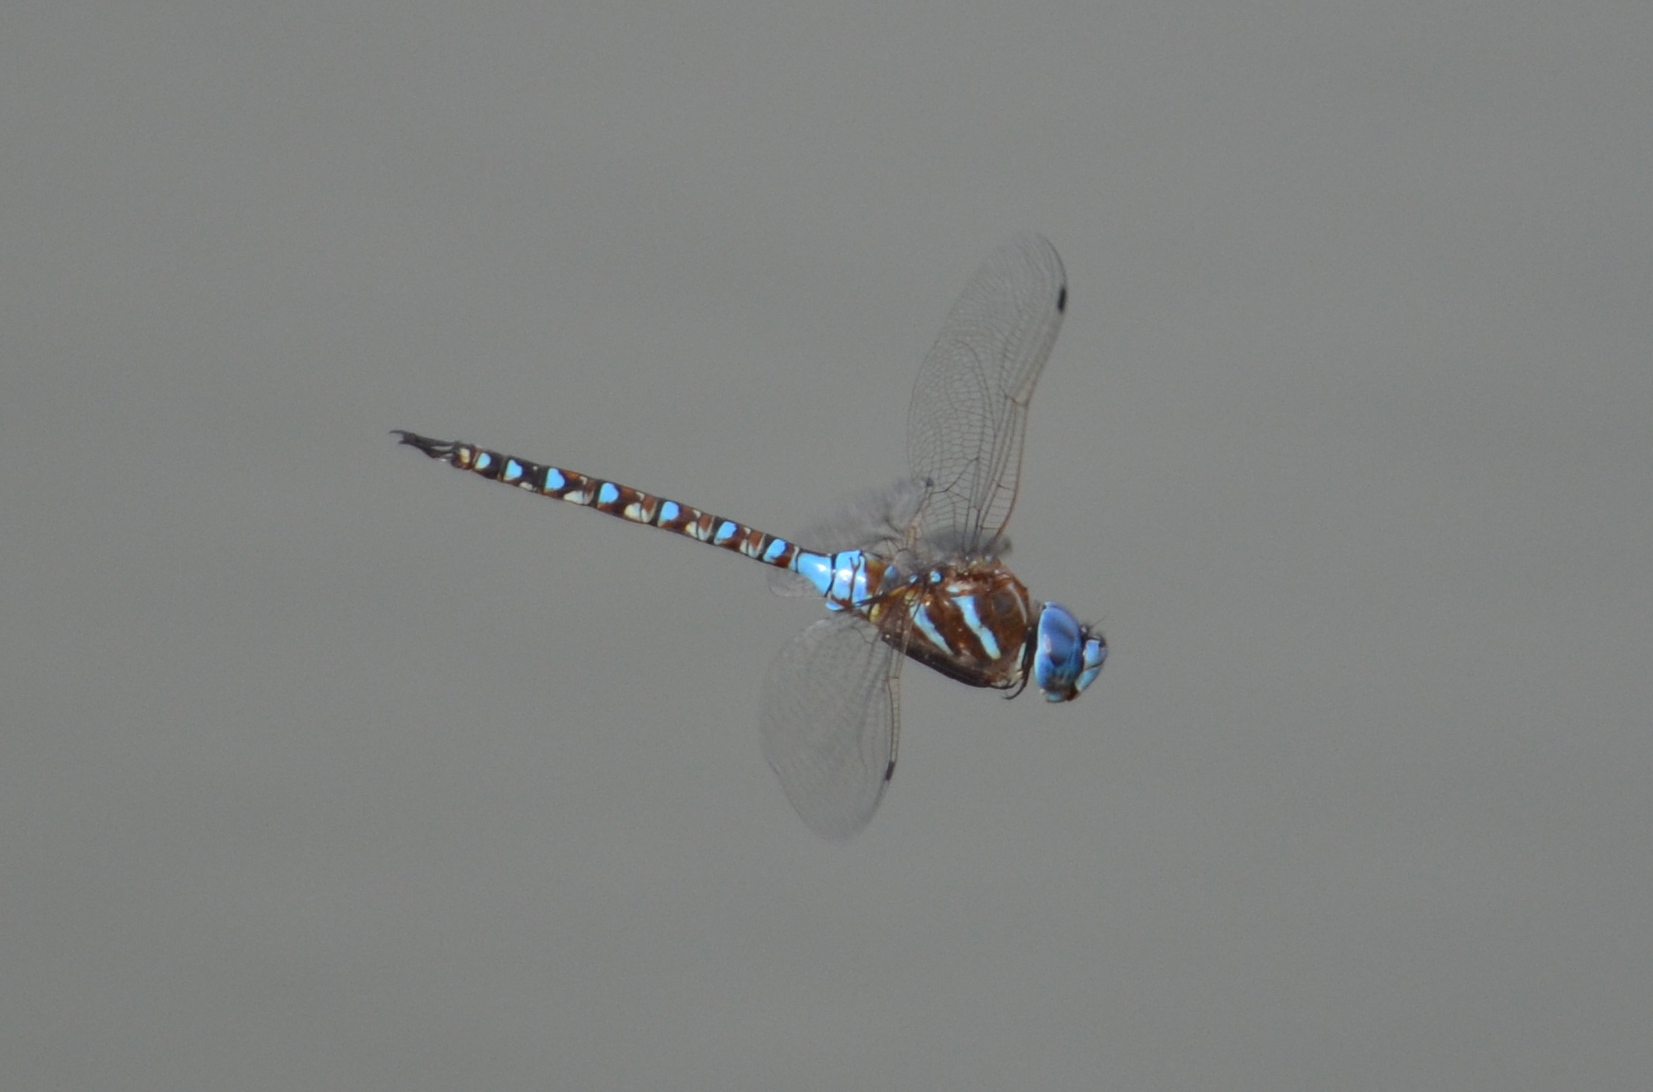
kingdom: Animalia
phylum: Arthropoda
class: Insecta
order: Odonata
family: Aeshnidae
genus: Rhionaeschna
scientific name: Rhionaeschna multicolor
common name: Blue-eyed darner
